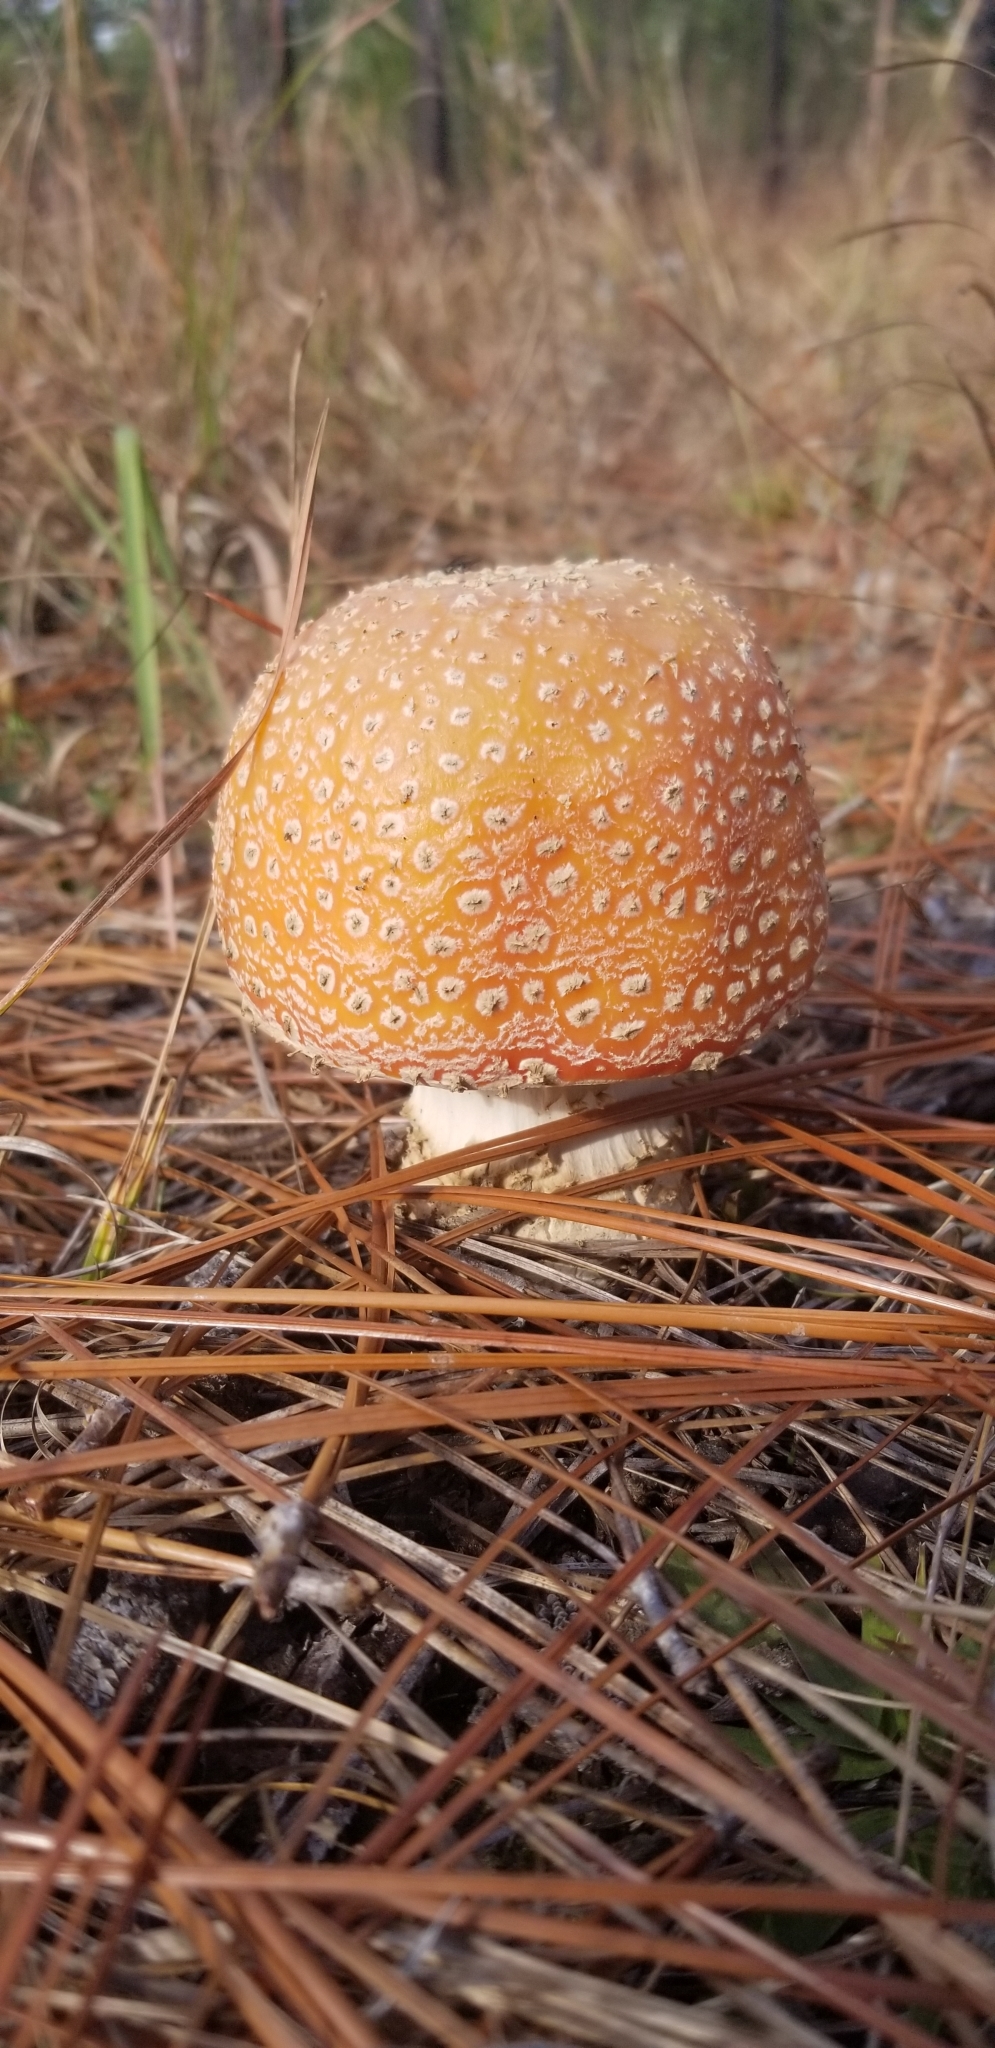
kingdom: Fungi
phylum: Basidiomycota
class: Agaricomycetes
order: Agaricales
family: Amanitaceae
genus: Amanita
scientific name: Amanita persicina
